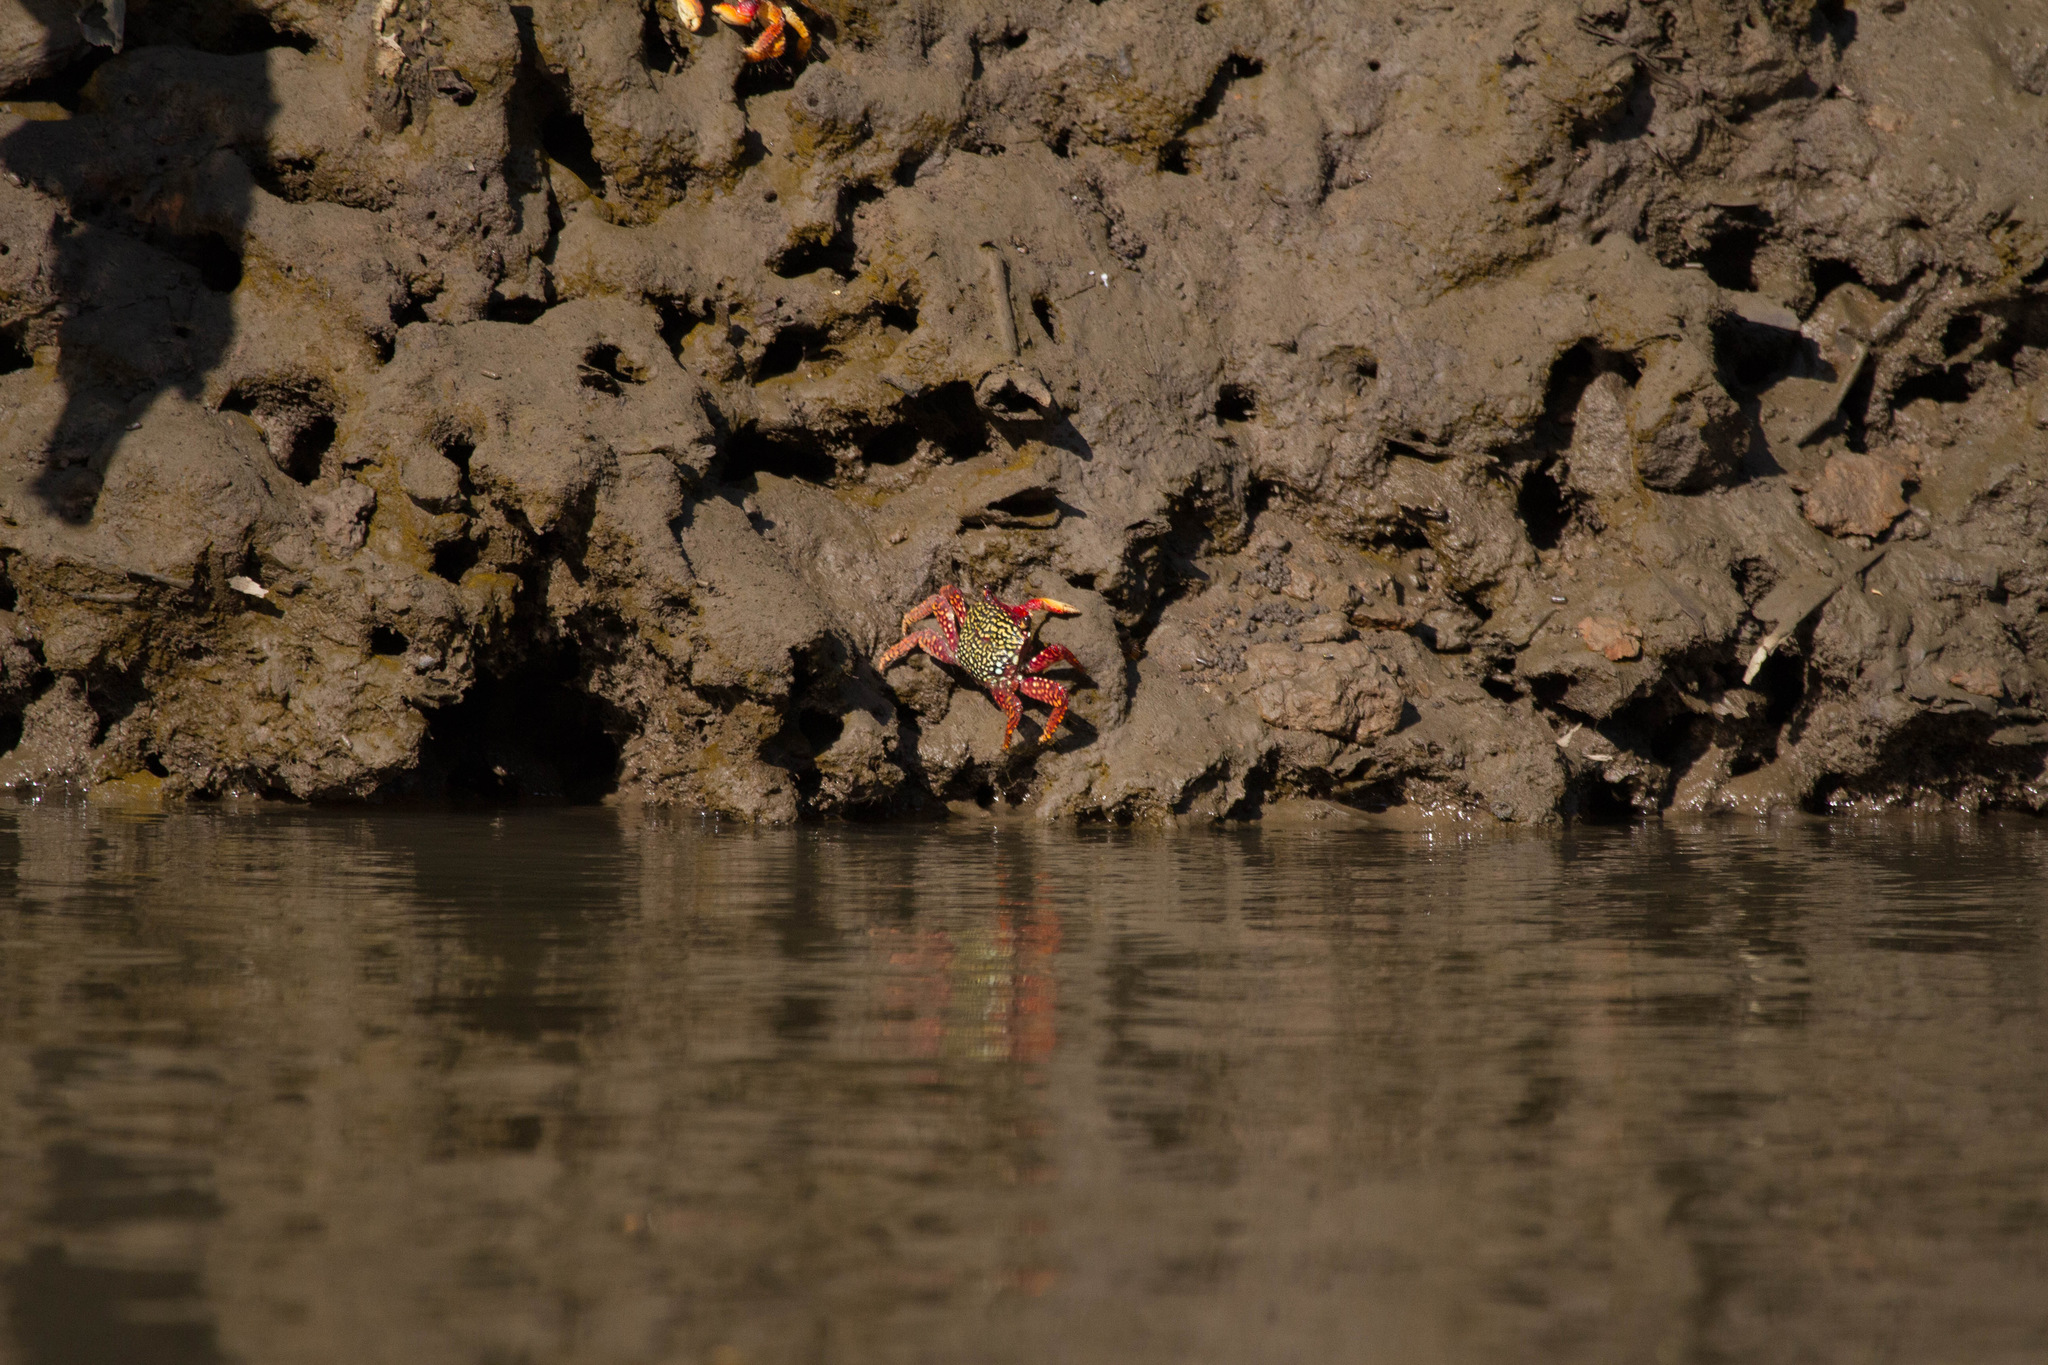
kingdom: Animalia
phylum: Arthropoda
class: Malacostraca
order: Decapoda
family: Grapsidae
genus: Goniopsis
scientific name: Goniopsis pulchra
